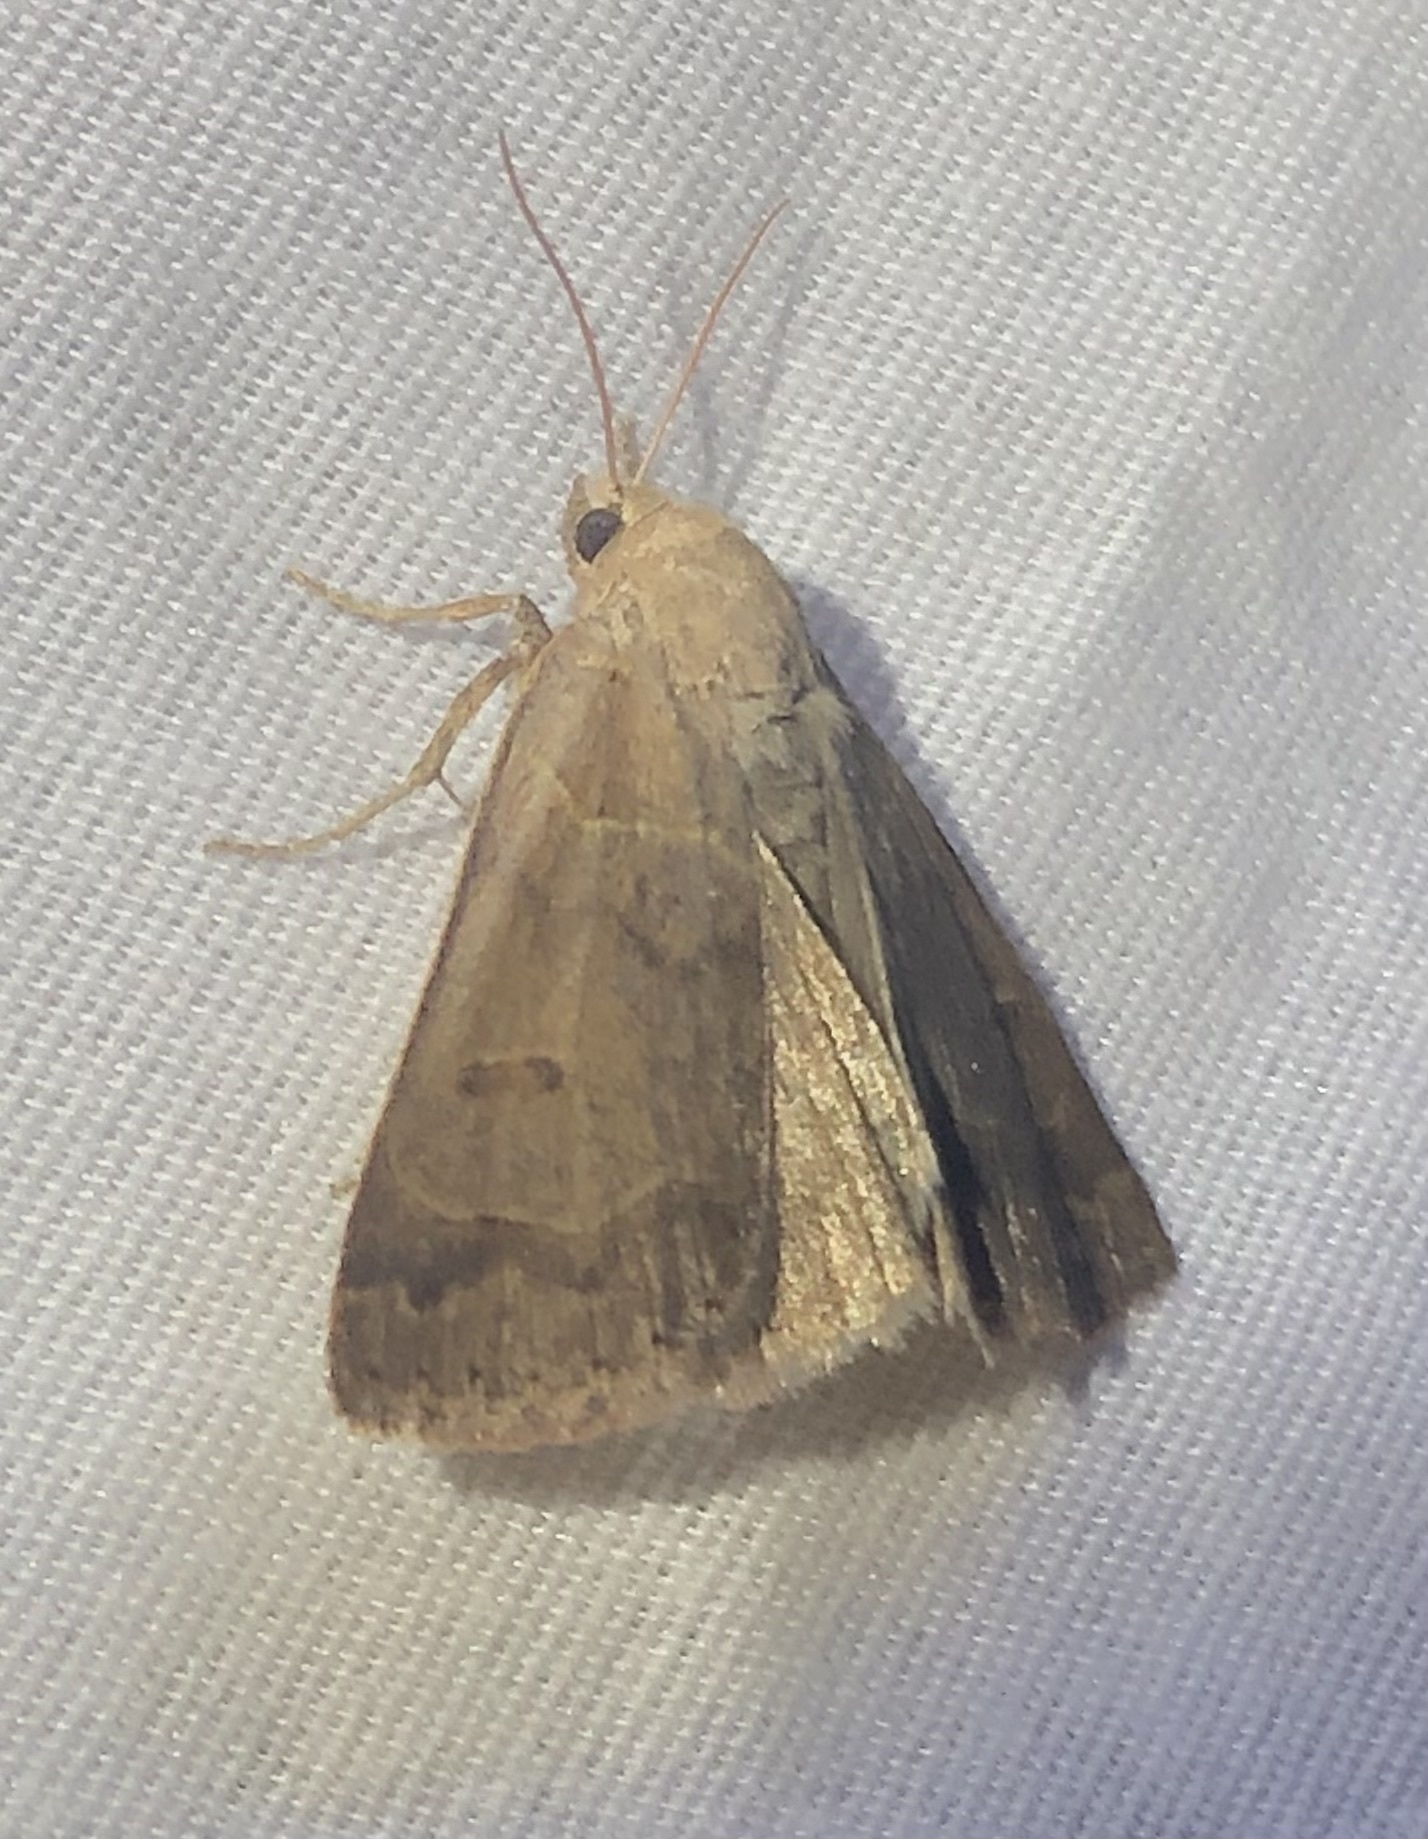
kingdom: Animalia
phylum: Arthropoda
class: Insecta
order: Lepidoptera
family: Erebidae
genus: Phoberia
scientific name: Phoberia atomaris
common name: Common oak moth
